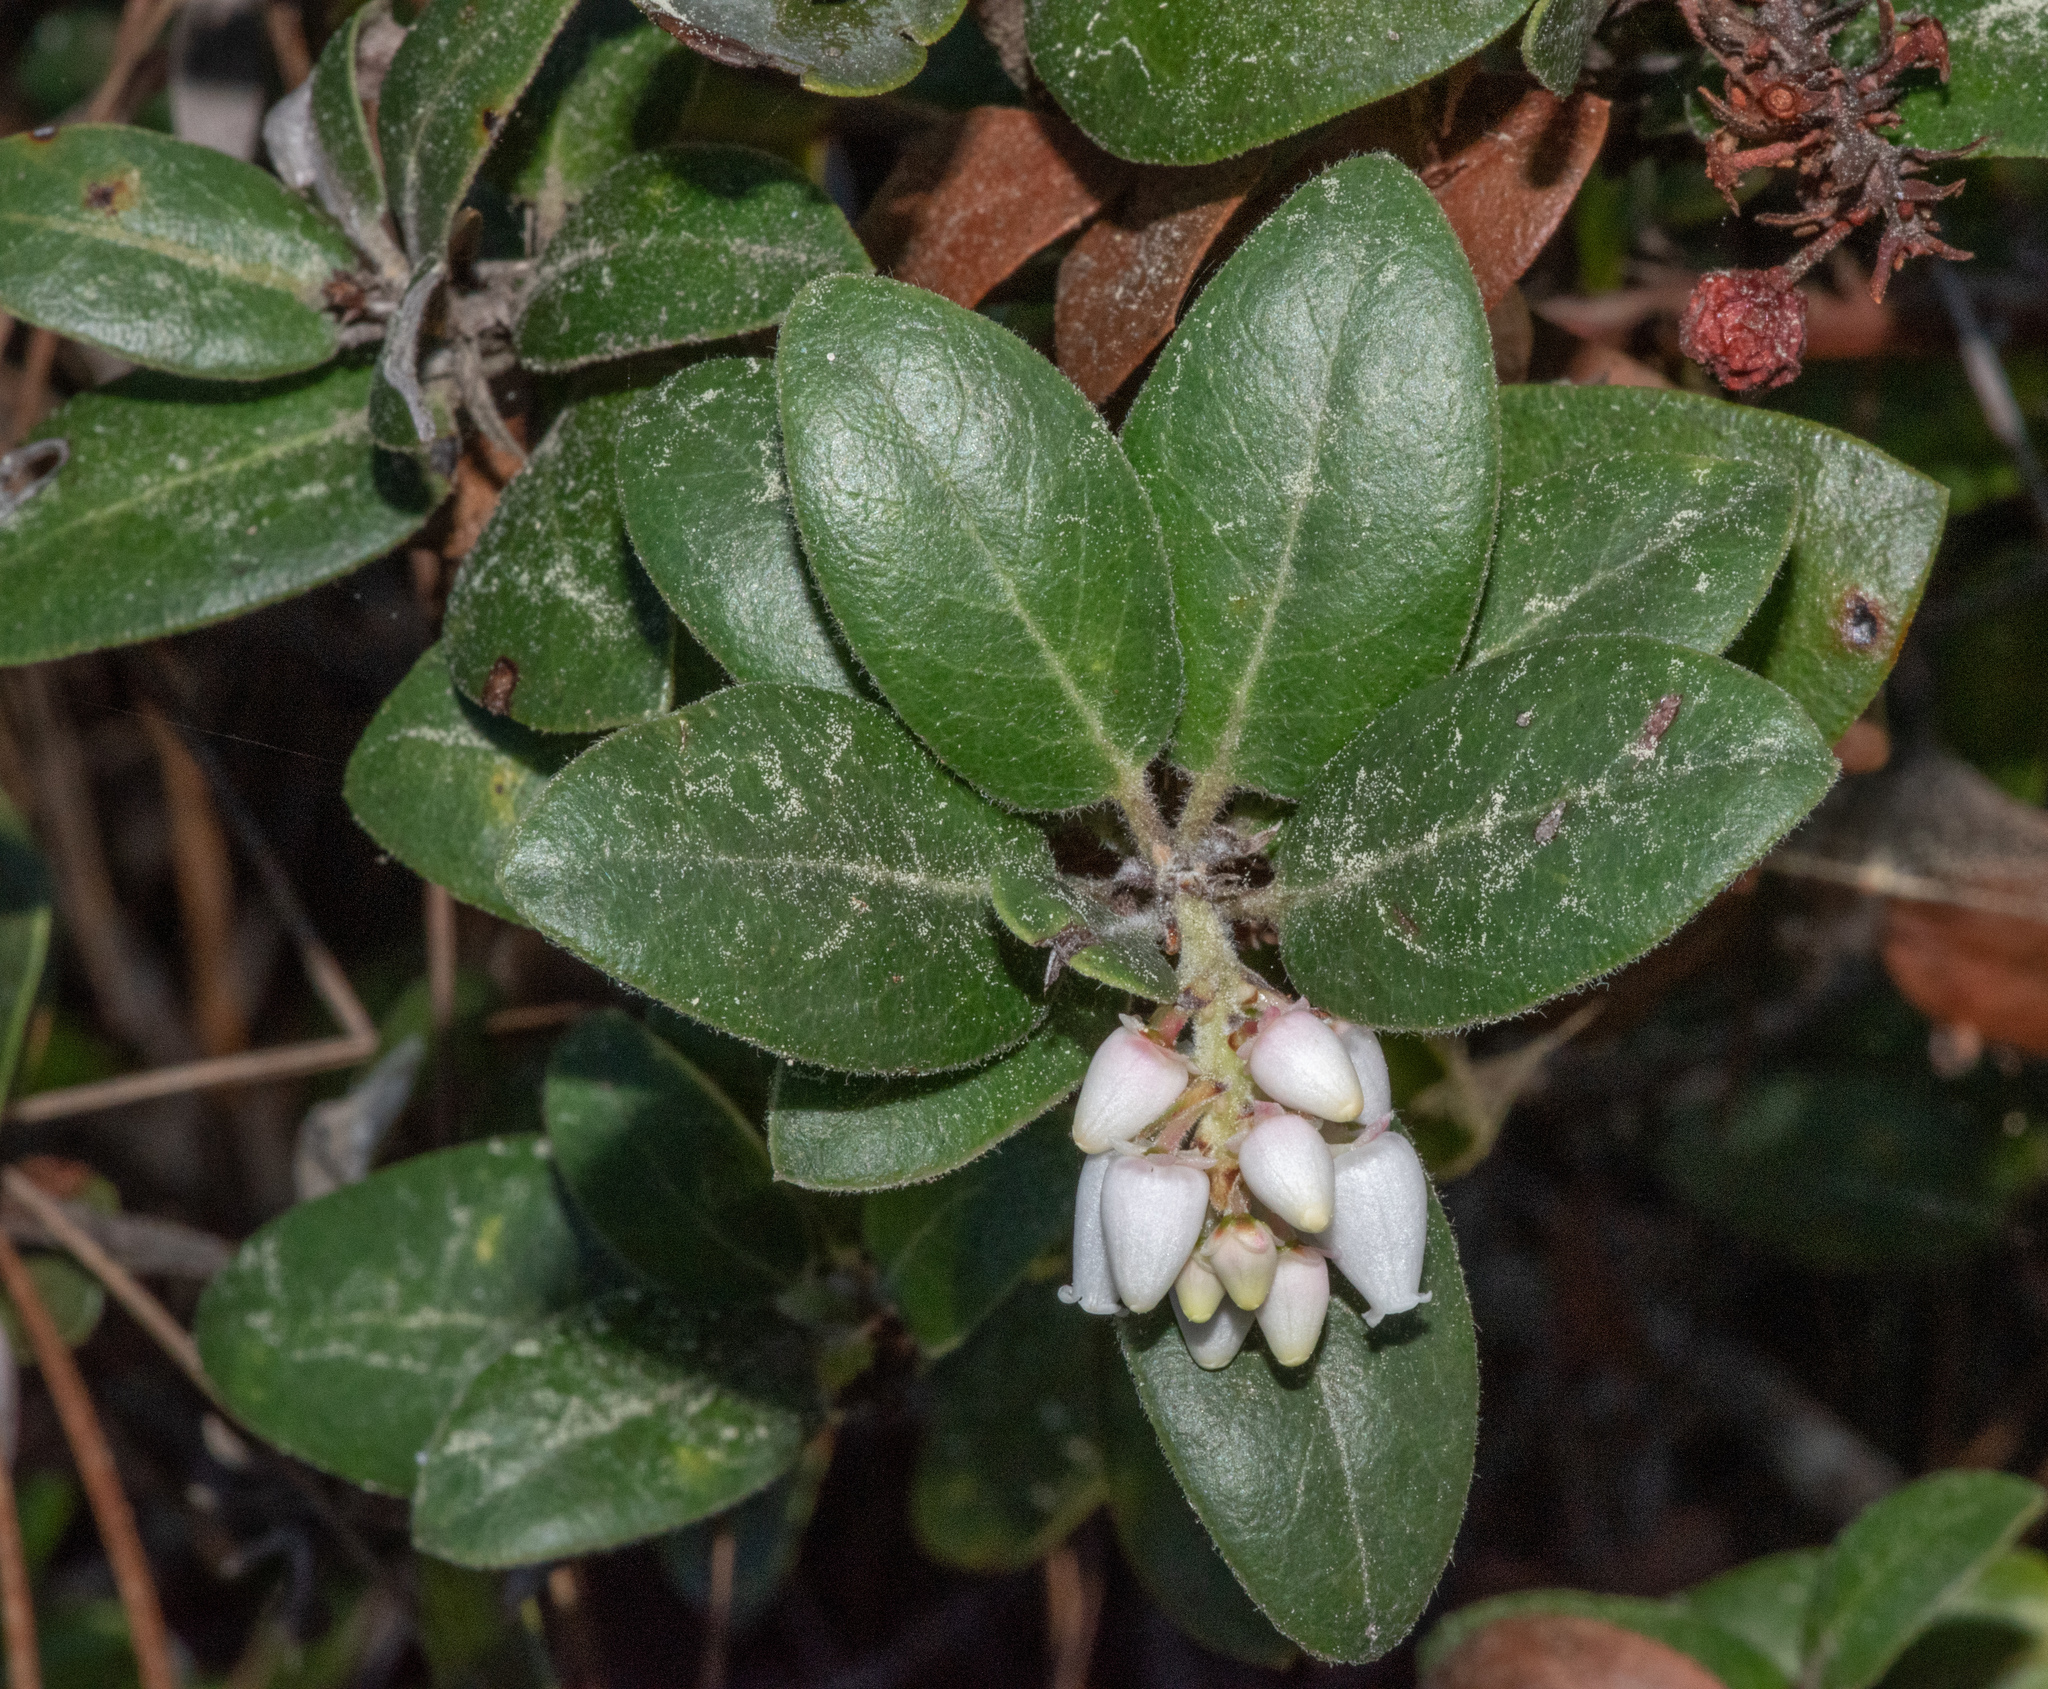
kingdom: Plantae
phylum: Tracheophyta
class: Magnoliopsida
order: Ericales
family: Ericaceae
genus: Arctostaphylos
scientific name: Arctostaphylos tomentosa
